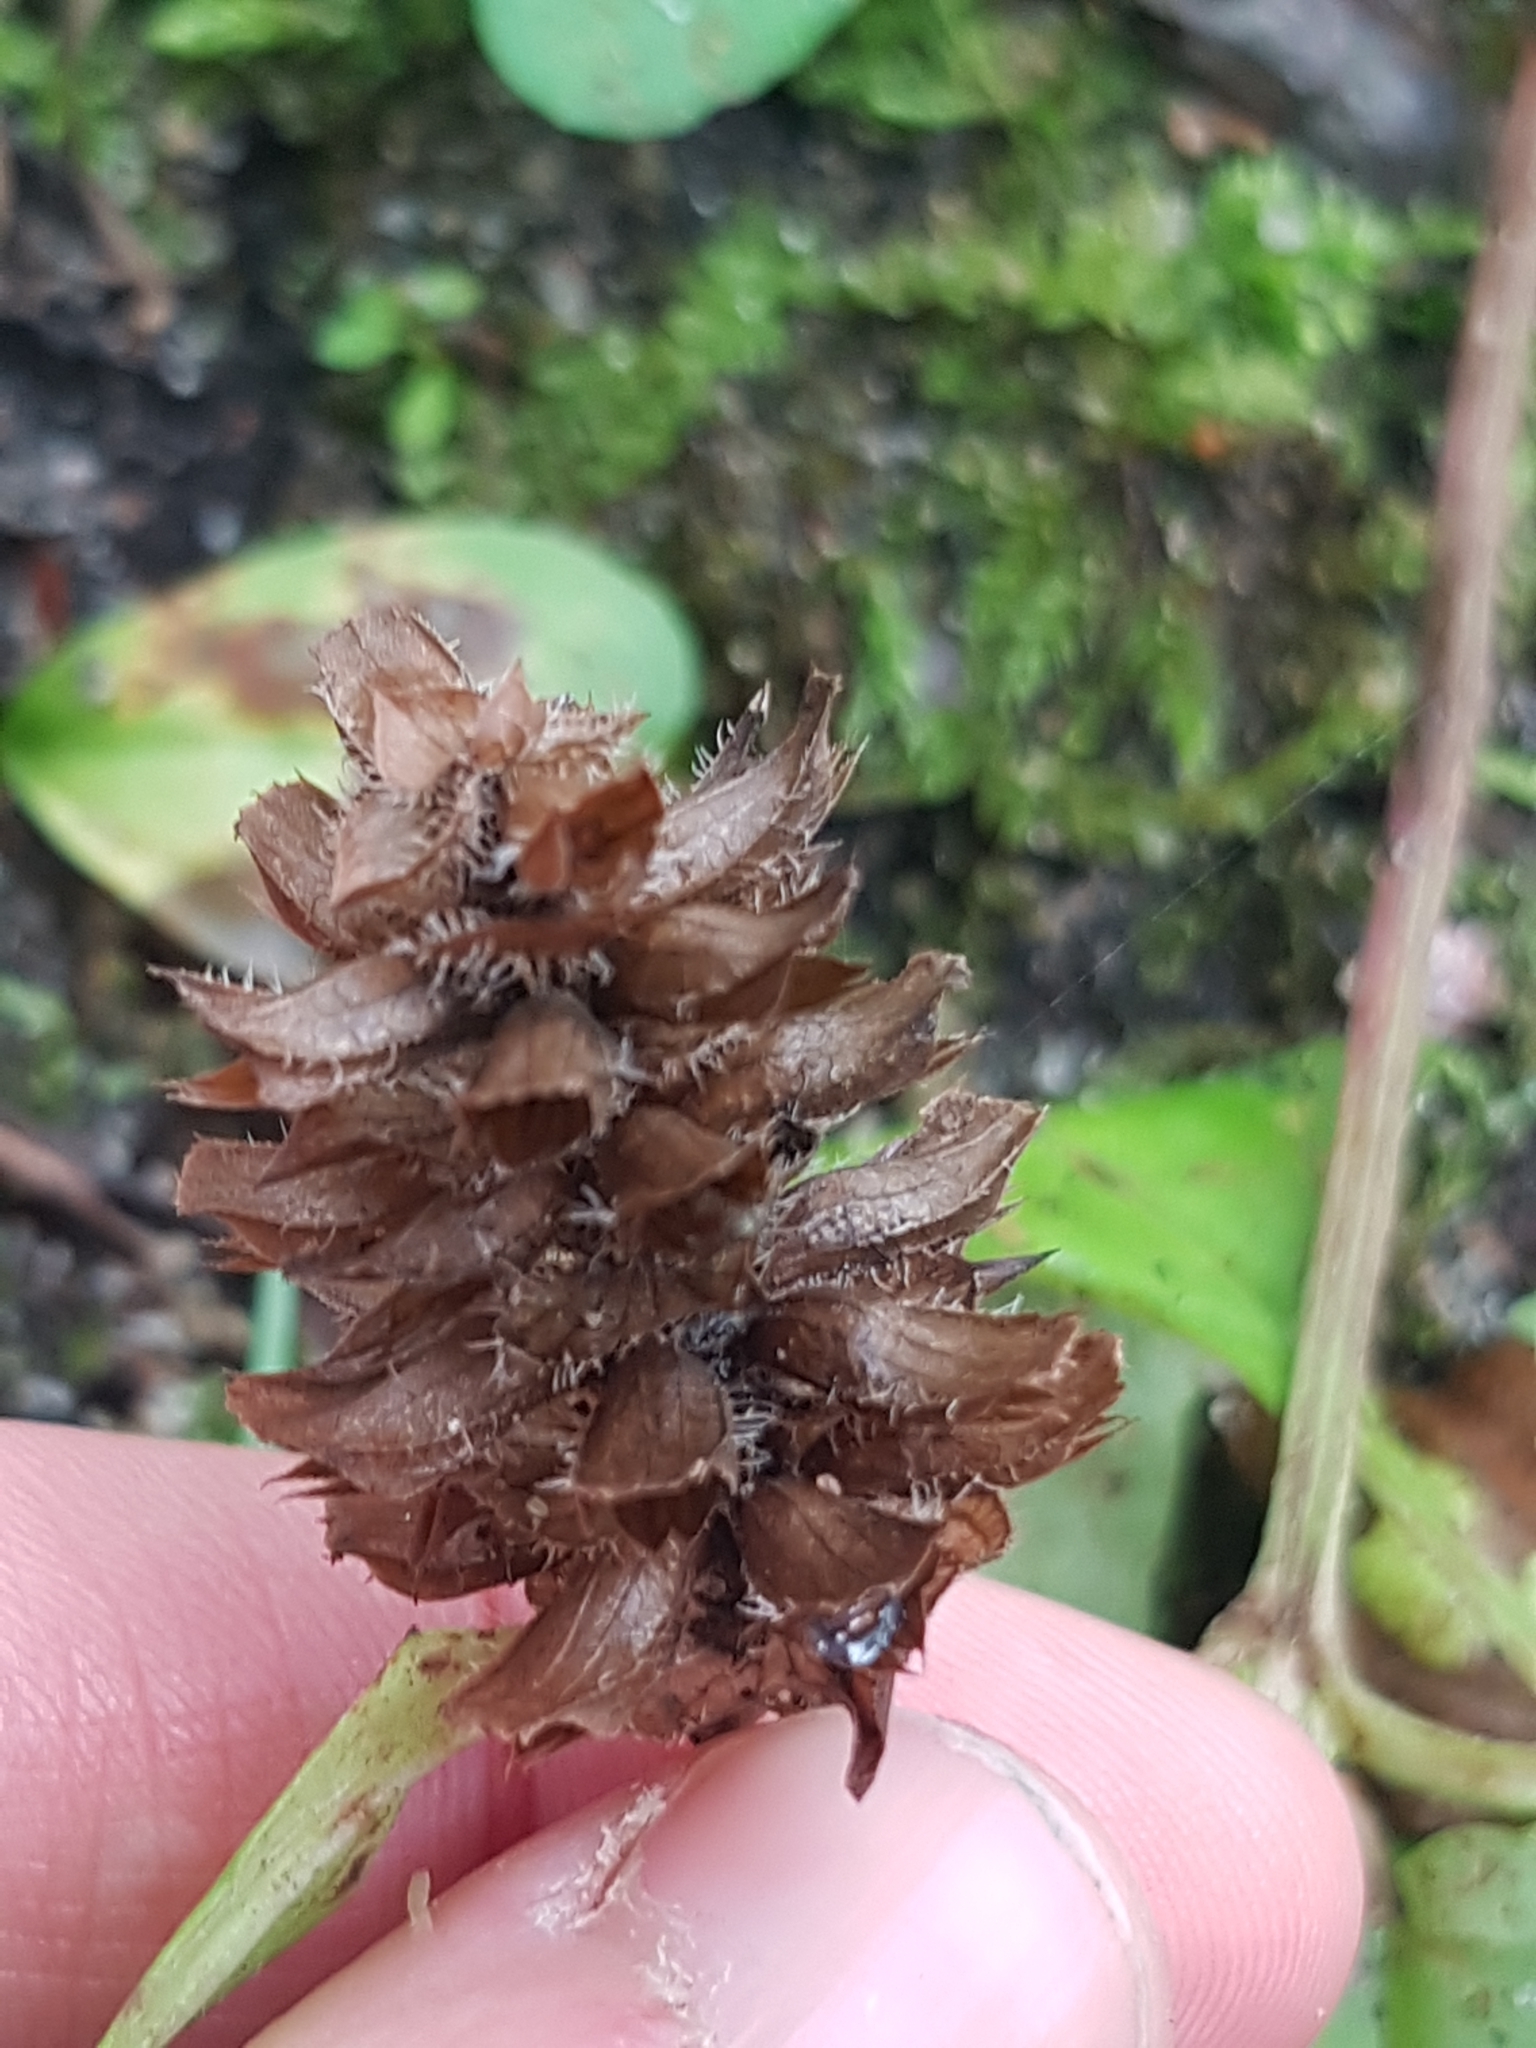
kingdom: Plantae
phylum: Tracheophyta
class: Magnoliopsida
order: Lamiales
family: Lamiaceae
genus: Prunella
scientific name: Prunella vulgaris
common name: Heal-all
